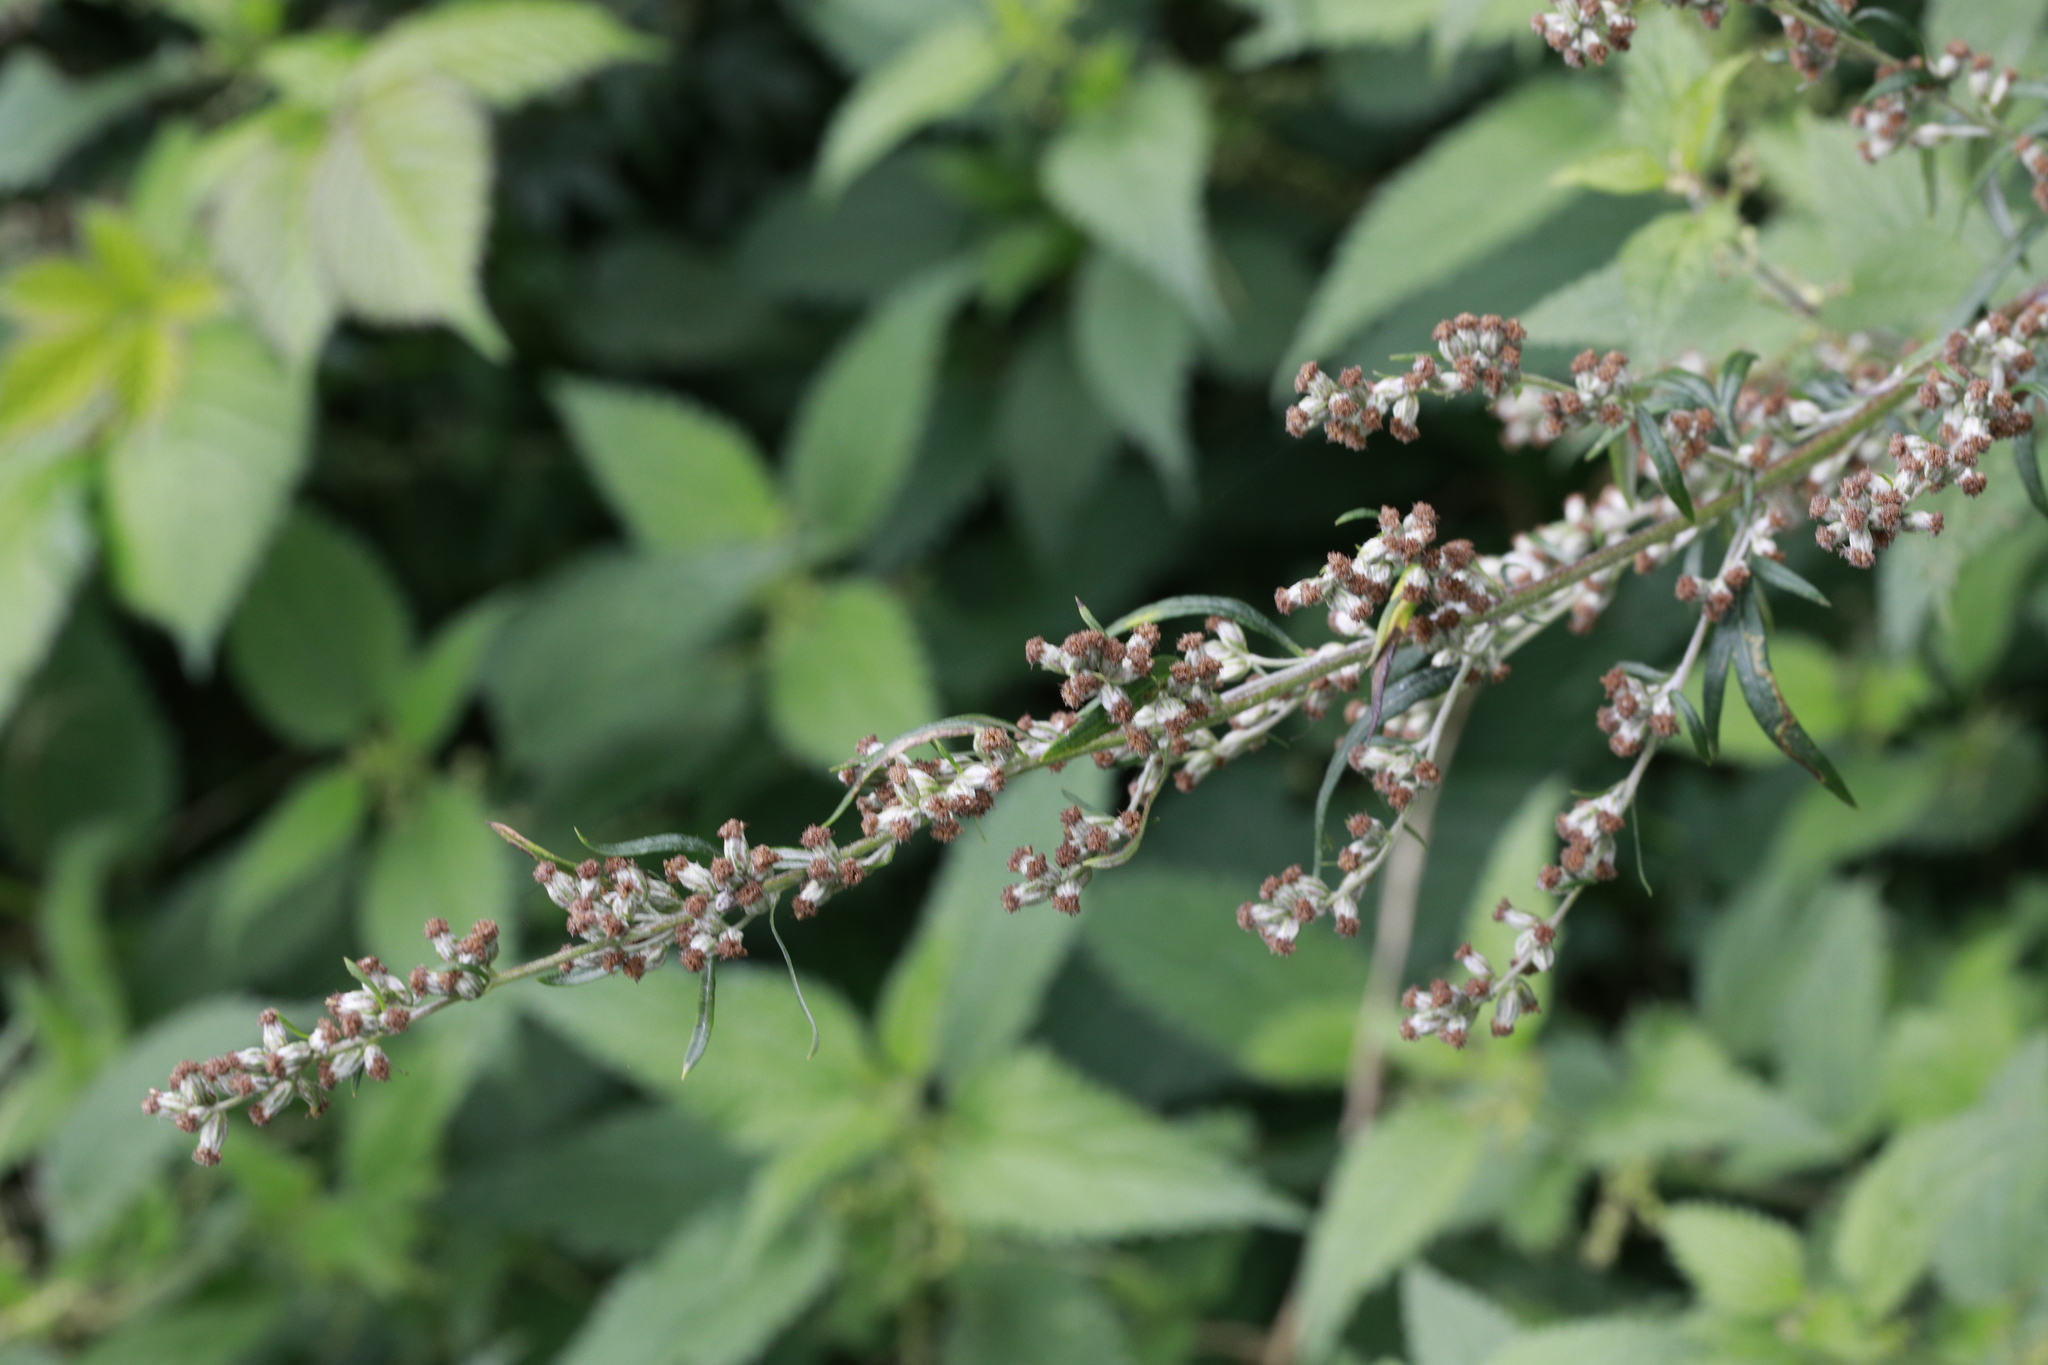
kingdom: Plantae
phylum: Tracheophyta
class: Magnoliopsida
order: Asterales
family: Asteraceae
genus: Artemisia
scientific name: Artemisia vulgaris
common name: Mugwort
